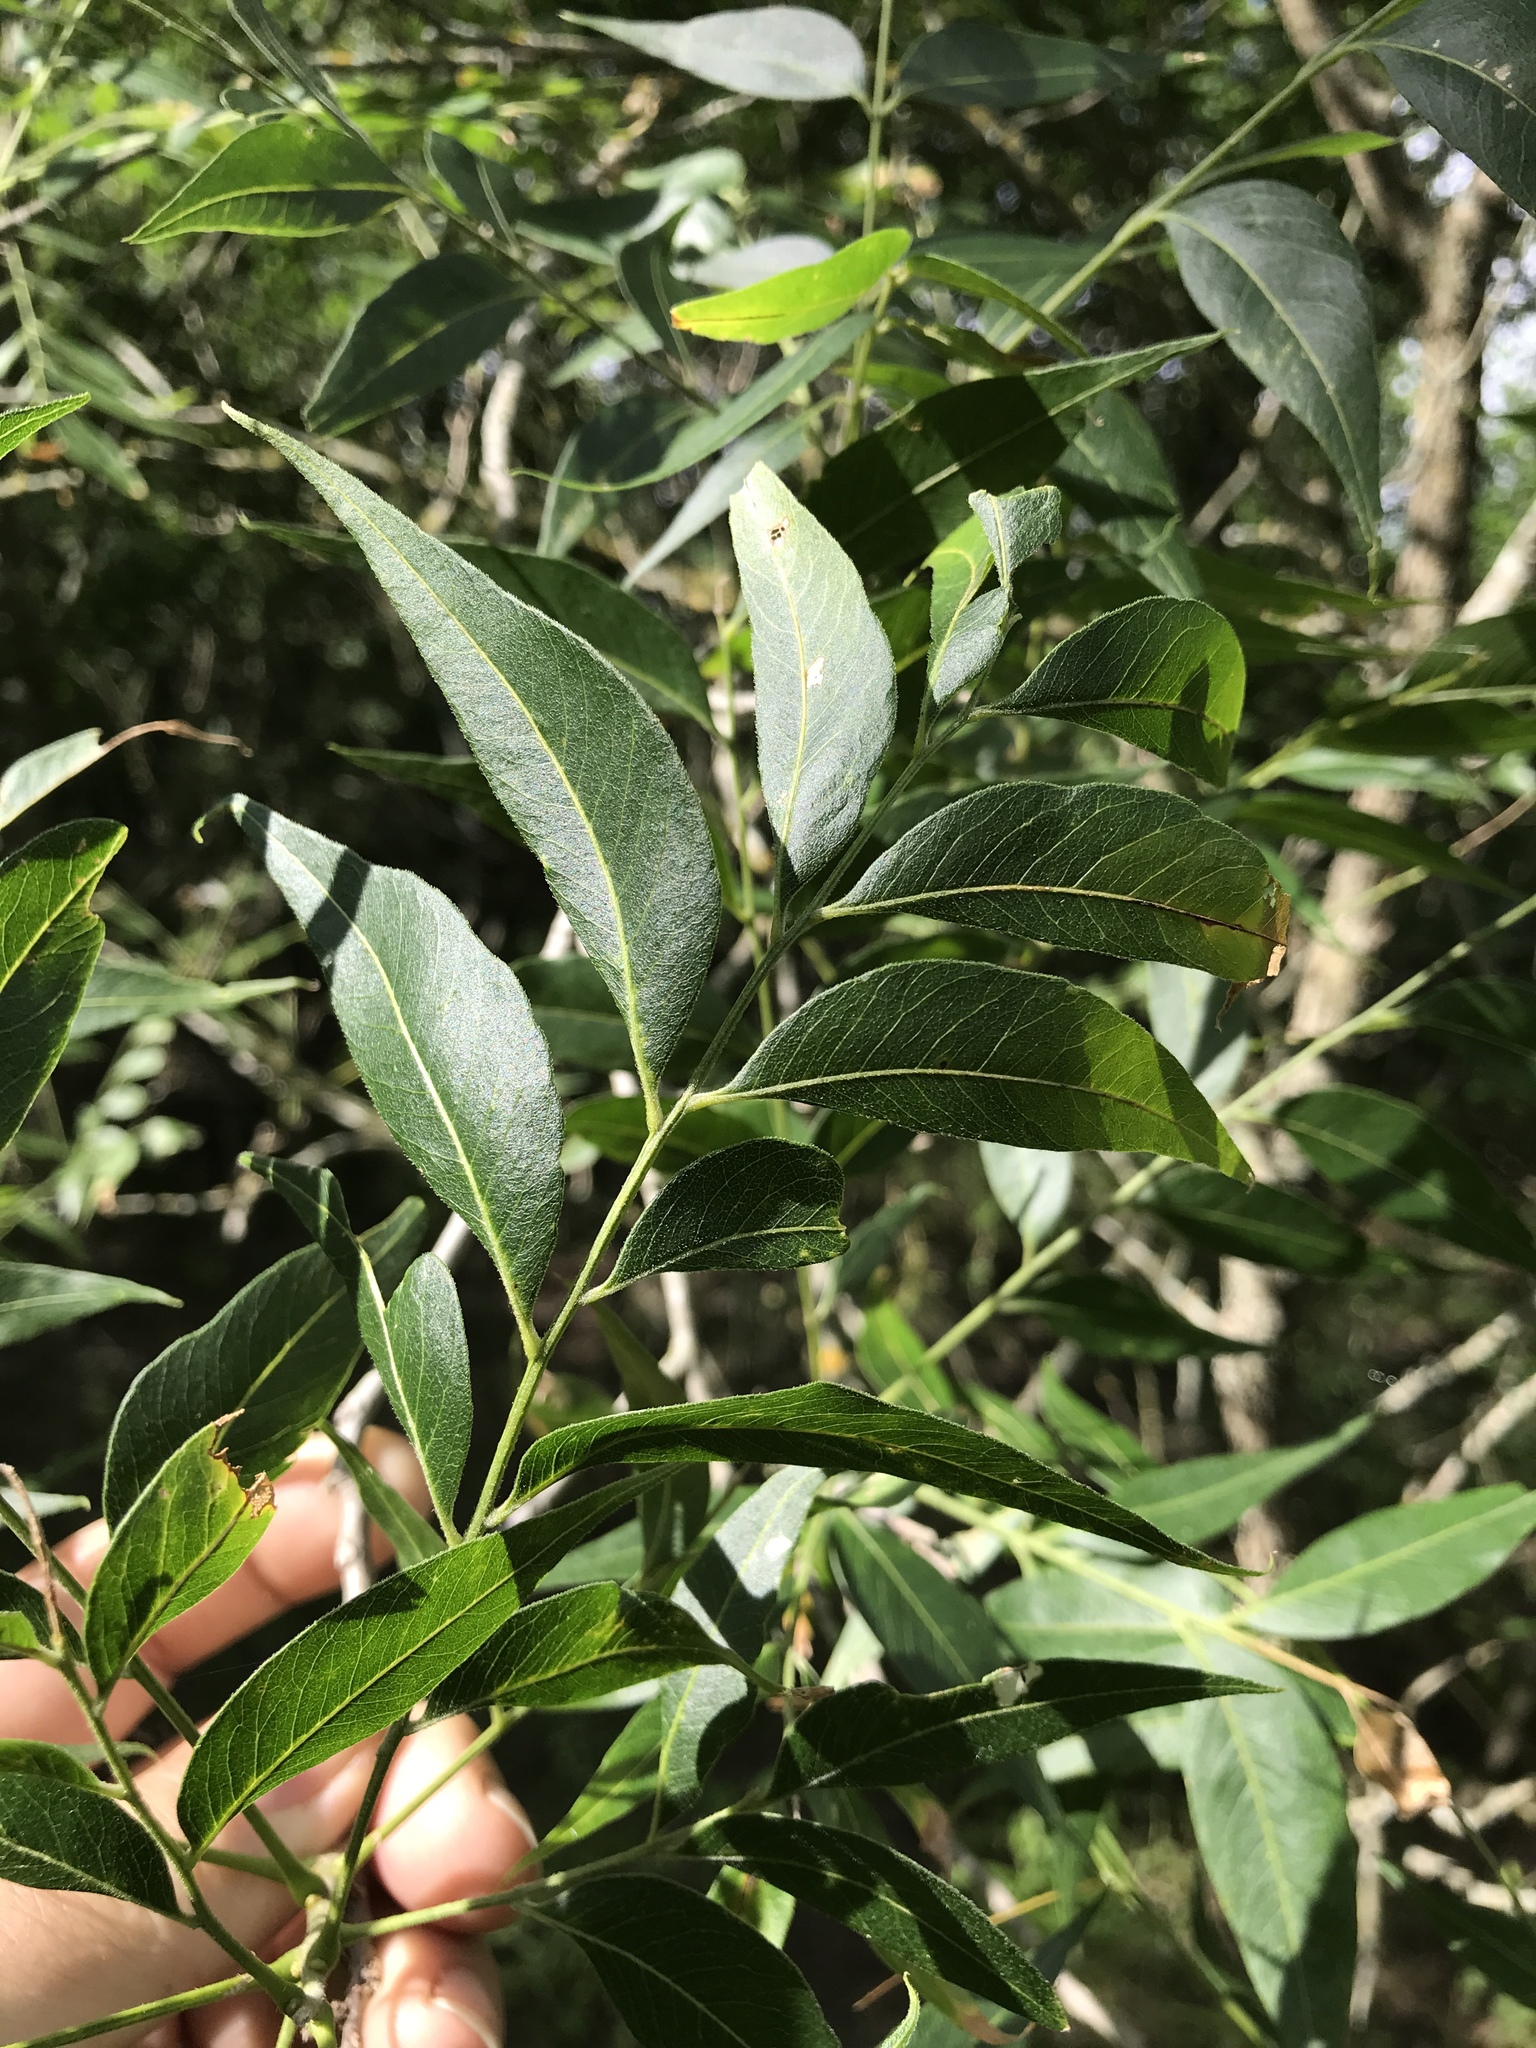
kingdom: Plantae
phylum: Tracheophyta
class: Magnoliopsida
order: Sapindales
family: Sapindaceae
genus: Sapindus
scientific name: Sapindus drummondii
